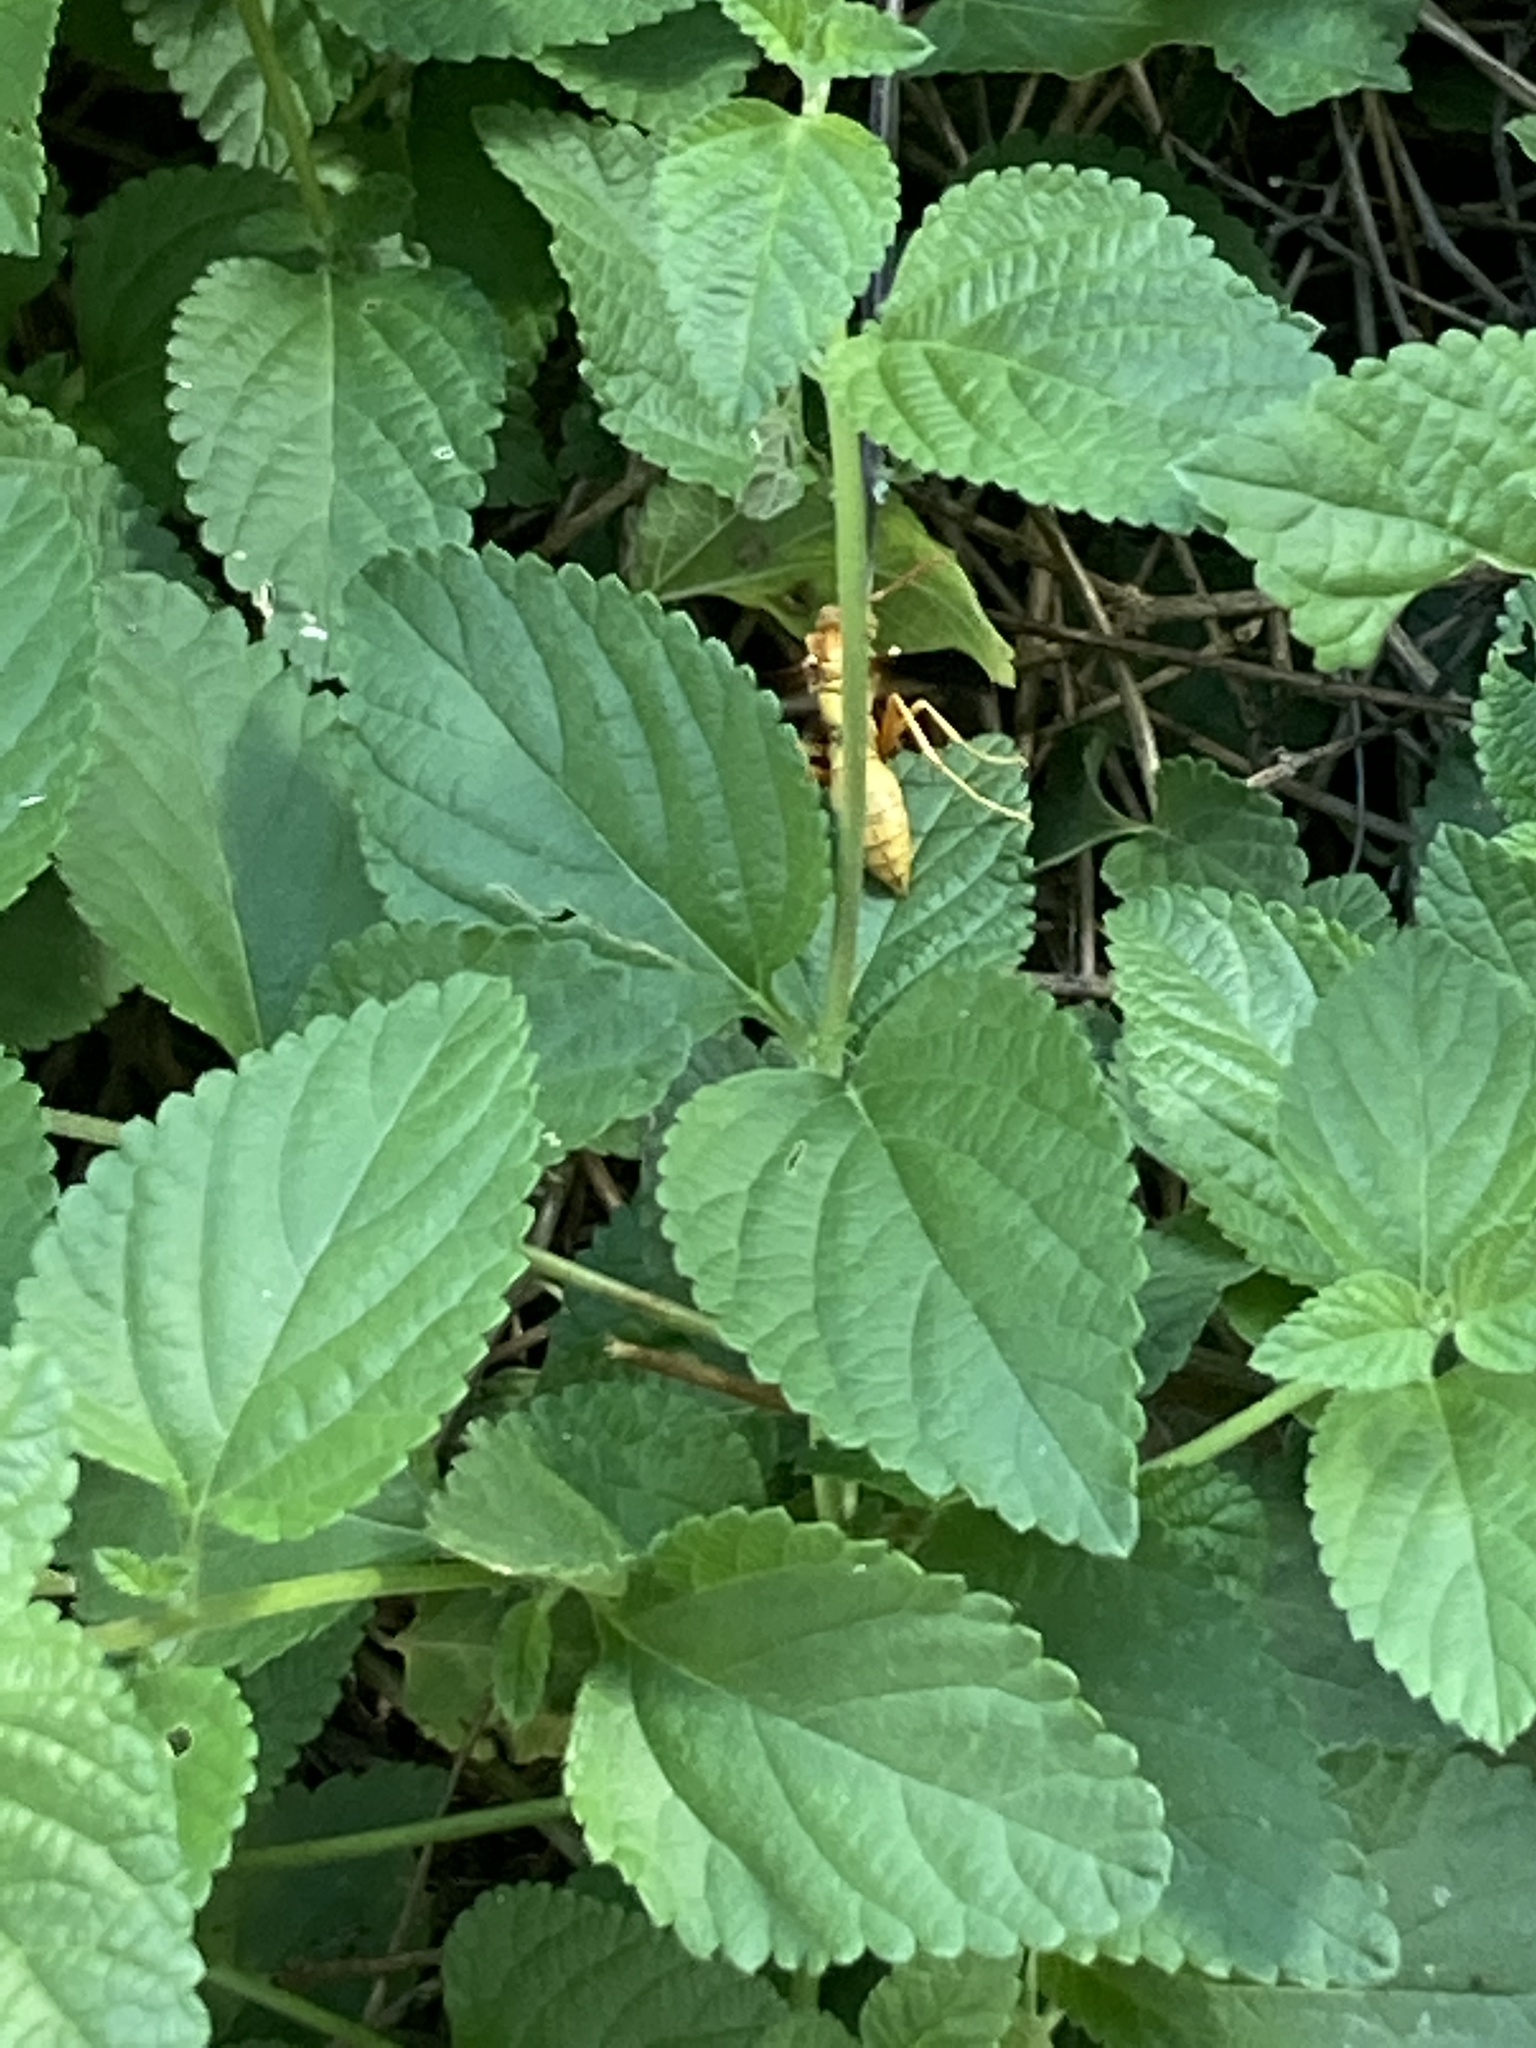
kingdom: Animalia
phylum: Arthropoda
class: Insecta
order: Hymenoptera
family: Eumenidae
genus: Polistes
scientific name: Polistes flavus
